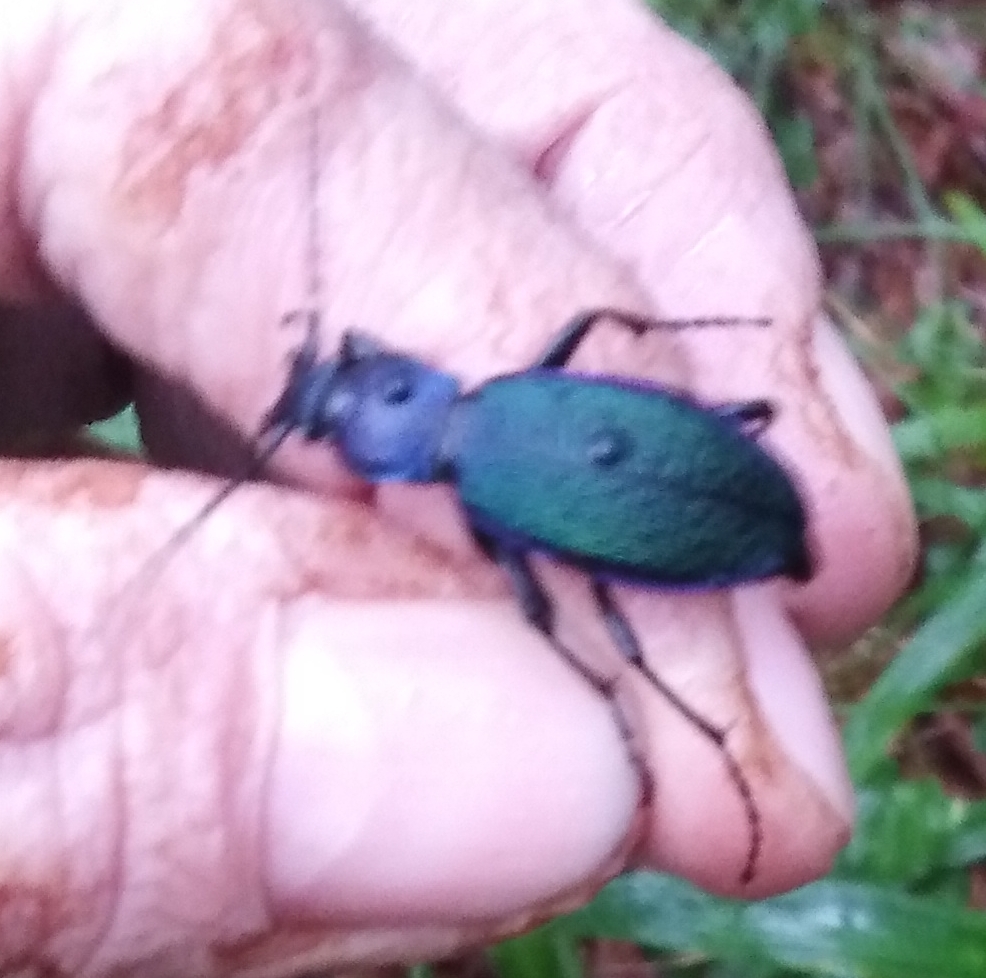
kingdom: Animalia
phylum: Arthropoda
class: Insecta
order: Coleoptera
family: Carabidae
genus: Carabus
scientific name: Carabus hummelii
